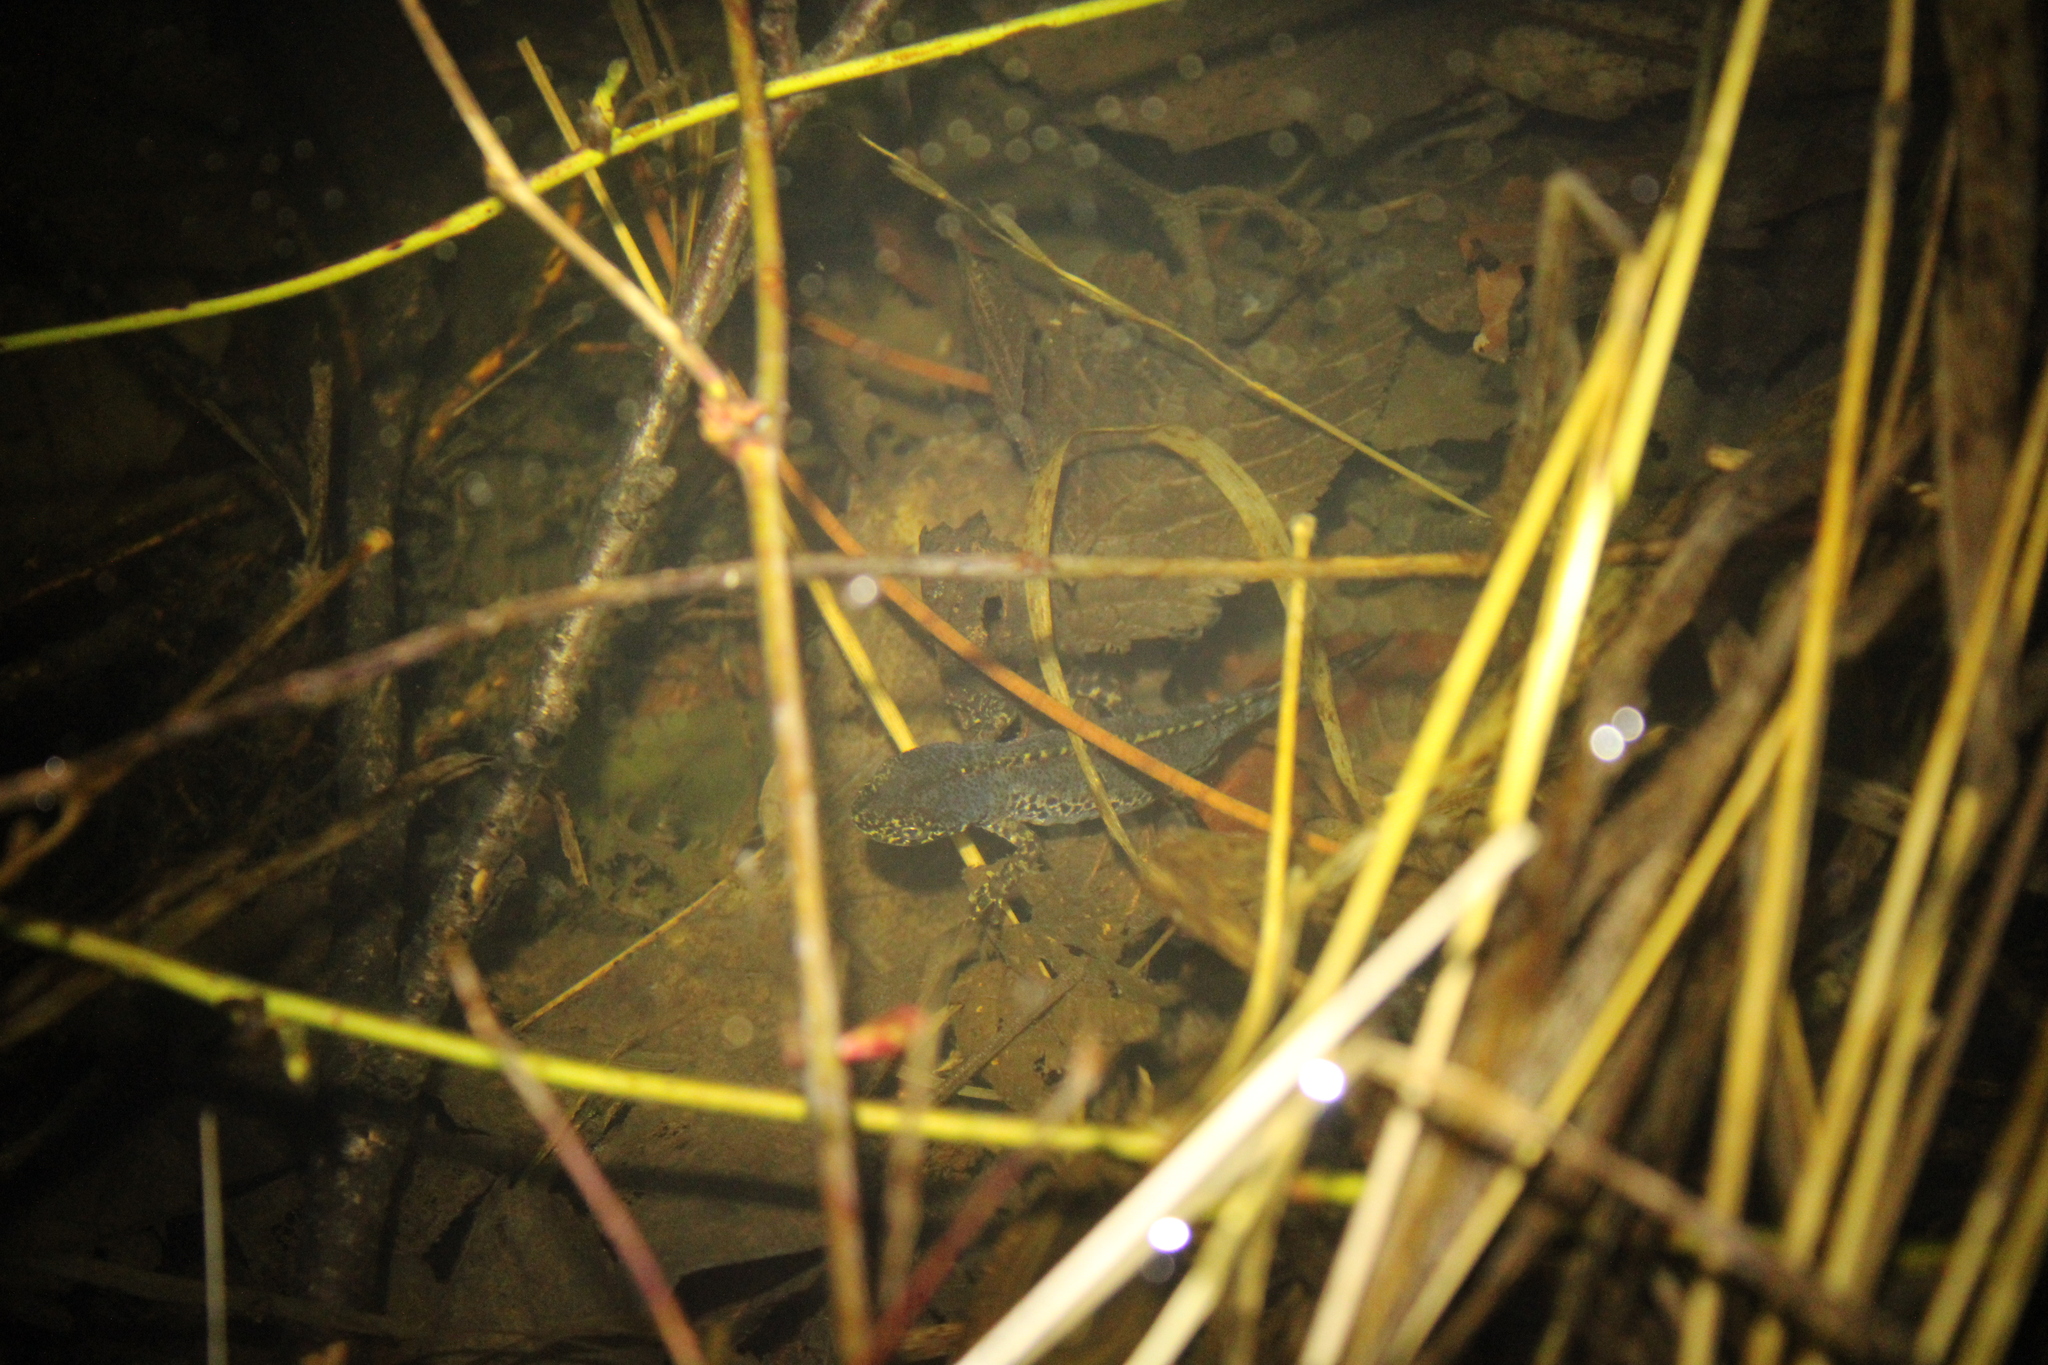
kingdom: Animalia
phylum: Chordata
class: Amphibia
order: Caudata
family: Salamandridae
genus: Ichthyosaura
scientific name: Ichthyosaura alpestris
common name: Alpine newt
